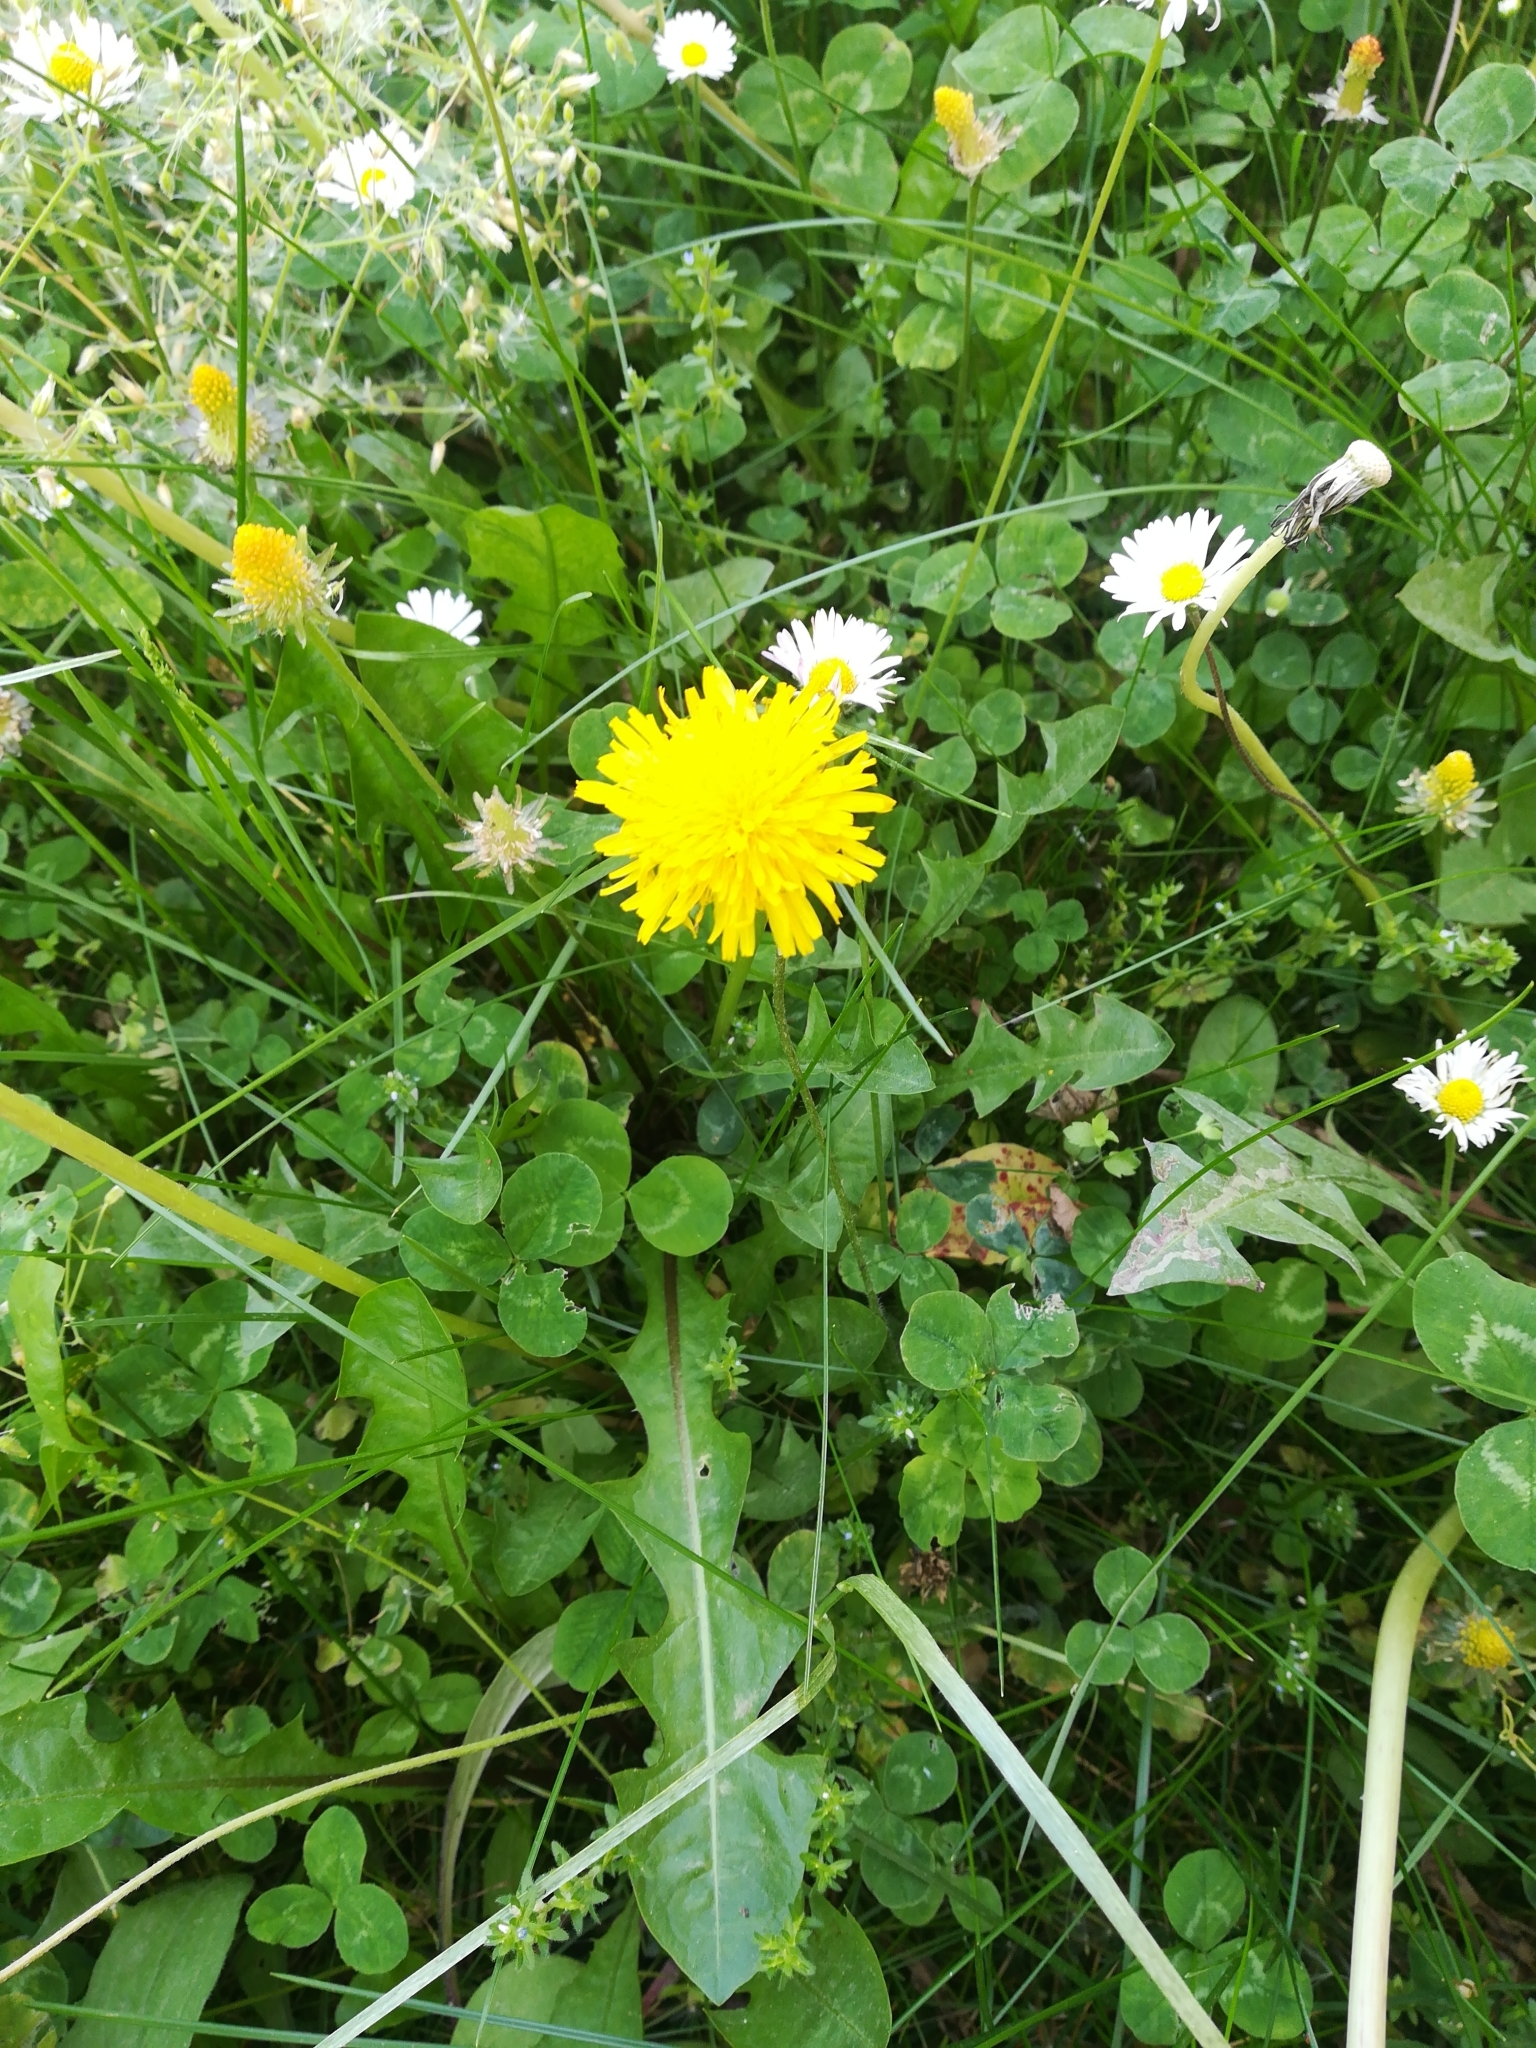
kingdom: Plantae
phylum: Tracheophyta
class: Magnoliopsida
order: Asterales
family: Asteraceae
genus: Taraxacum
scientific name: Taraxacum officinale
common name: Common dandelion
